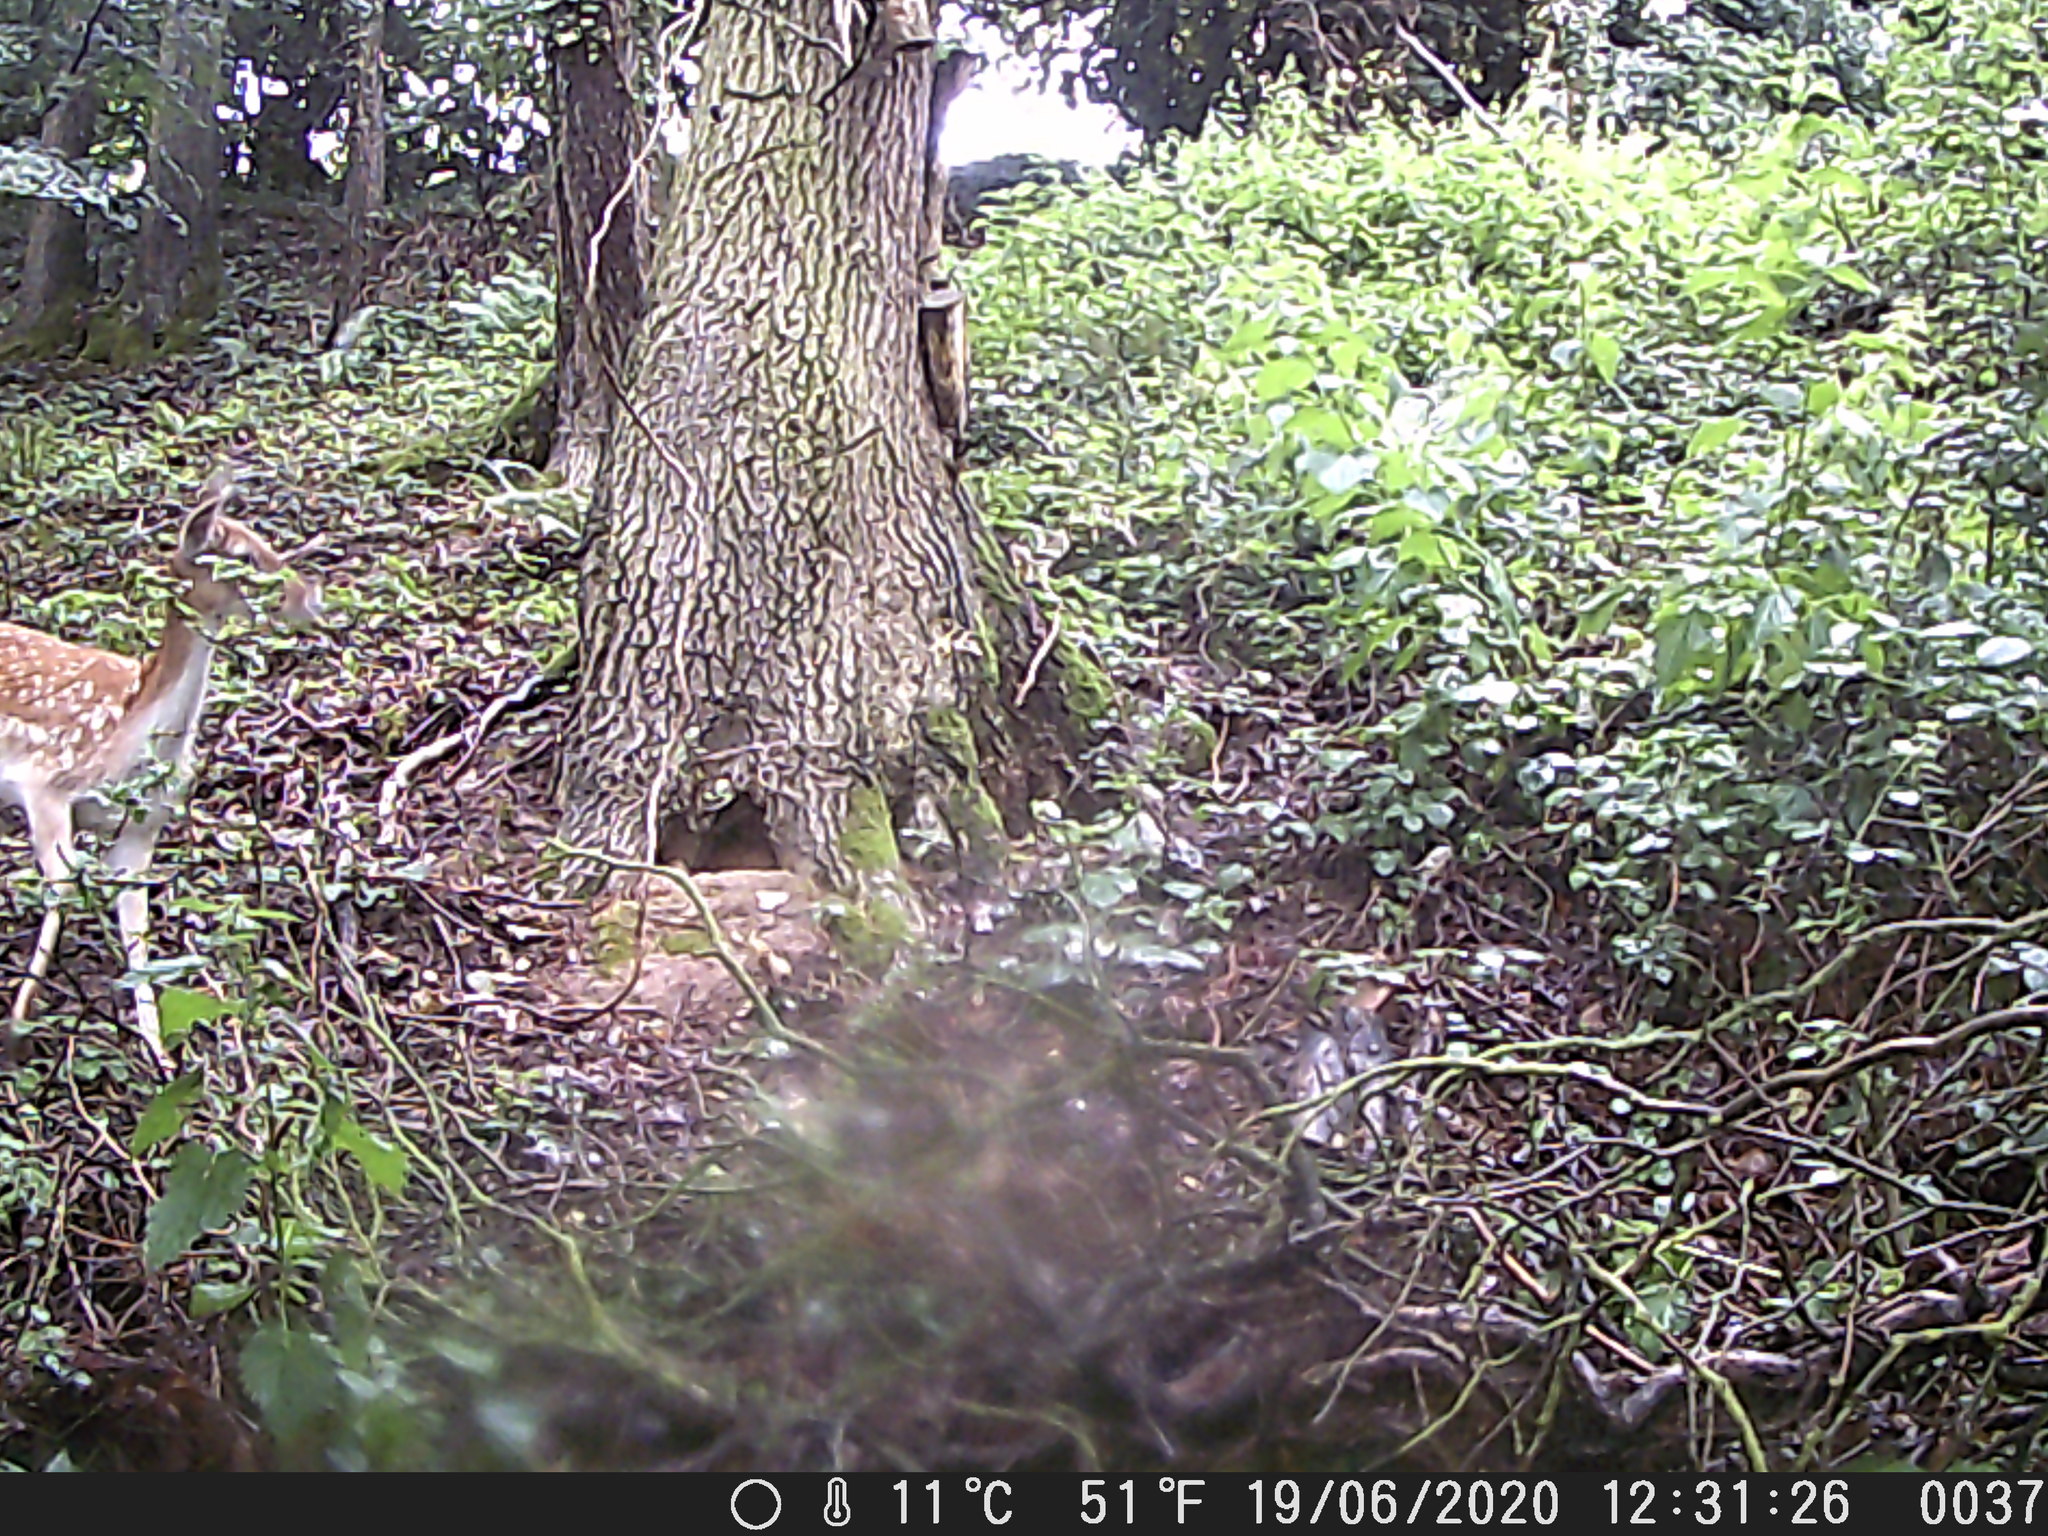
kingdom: Animalia
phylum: Chordata
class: Mammalia
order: Artiodactyla
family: Cervidae
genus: Dama
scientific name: Dama dama
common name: Fallow deer
